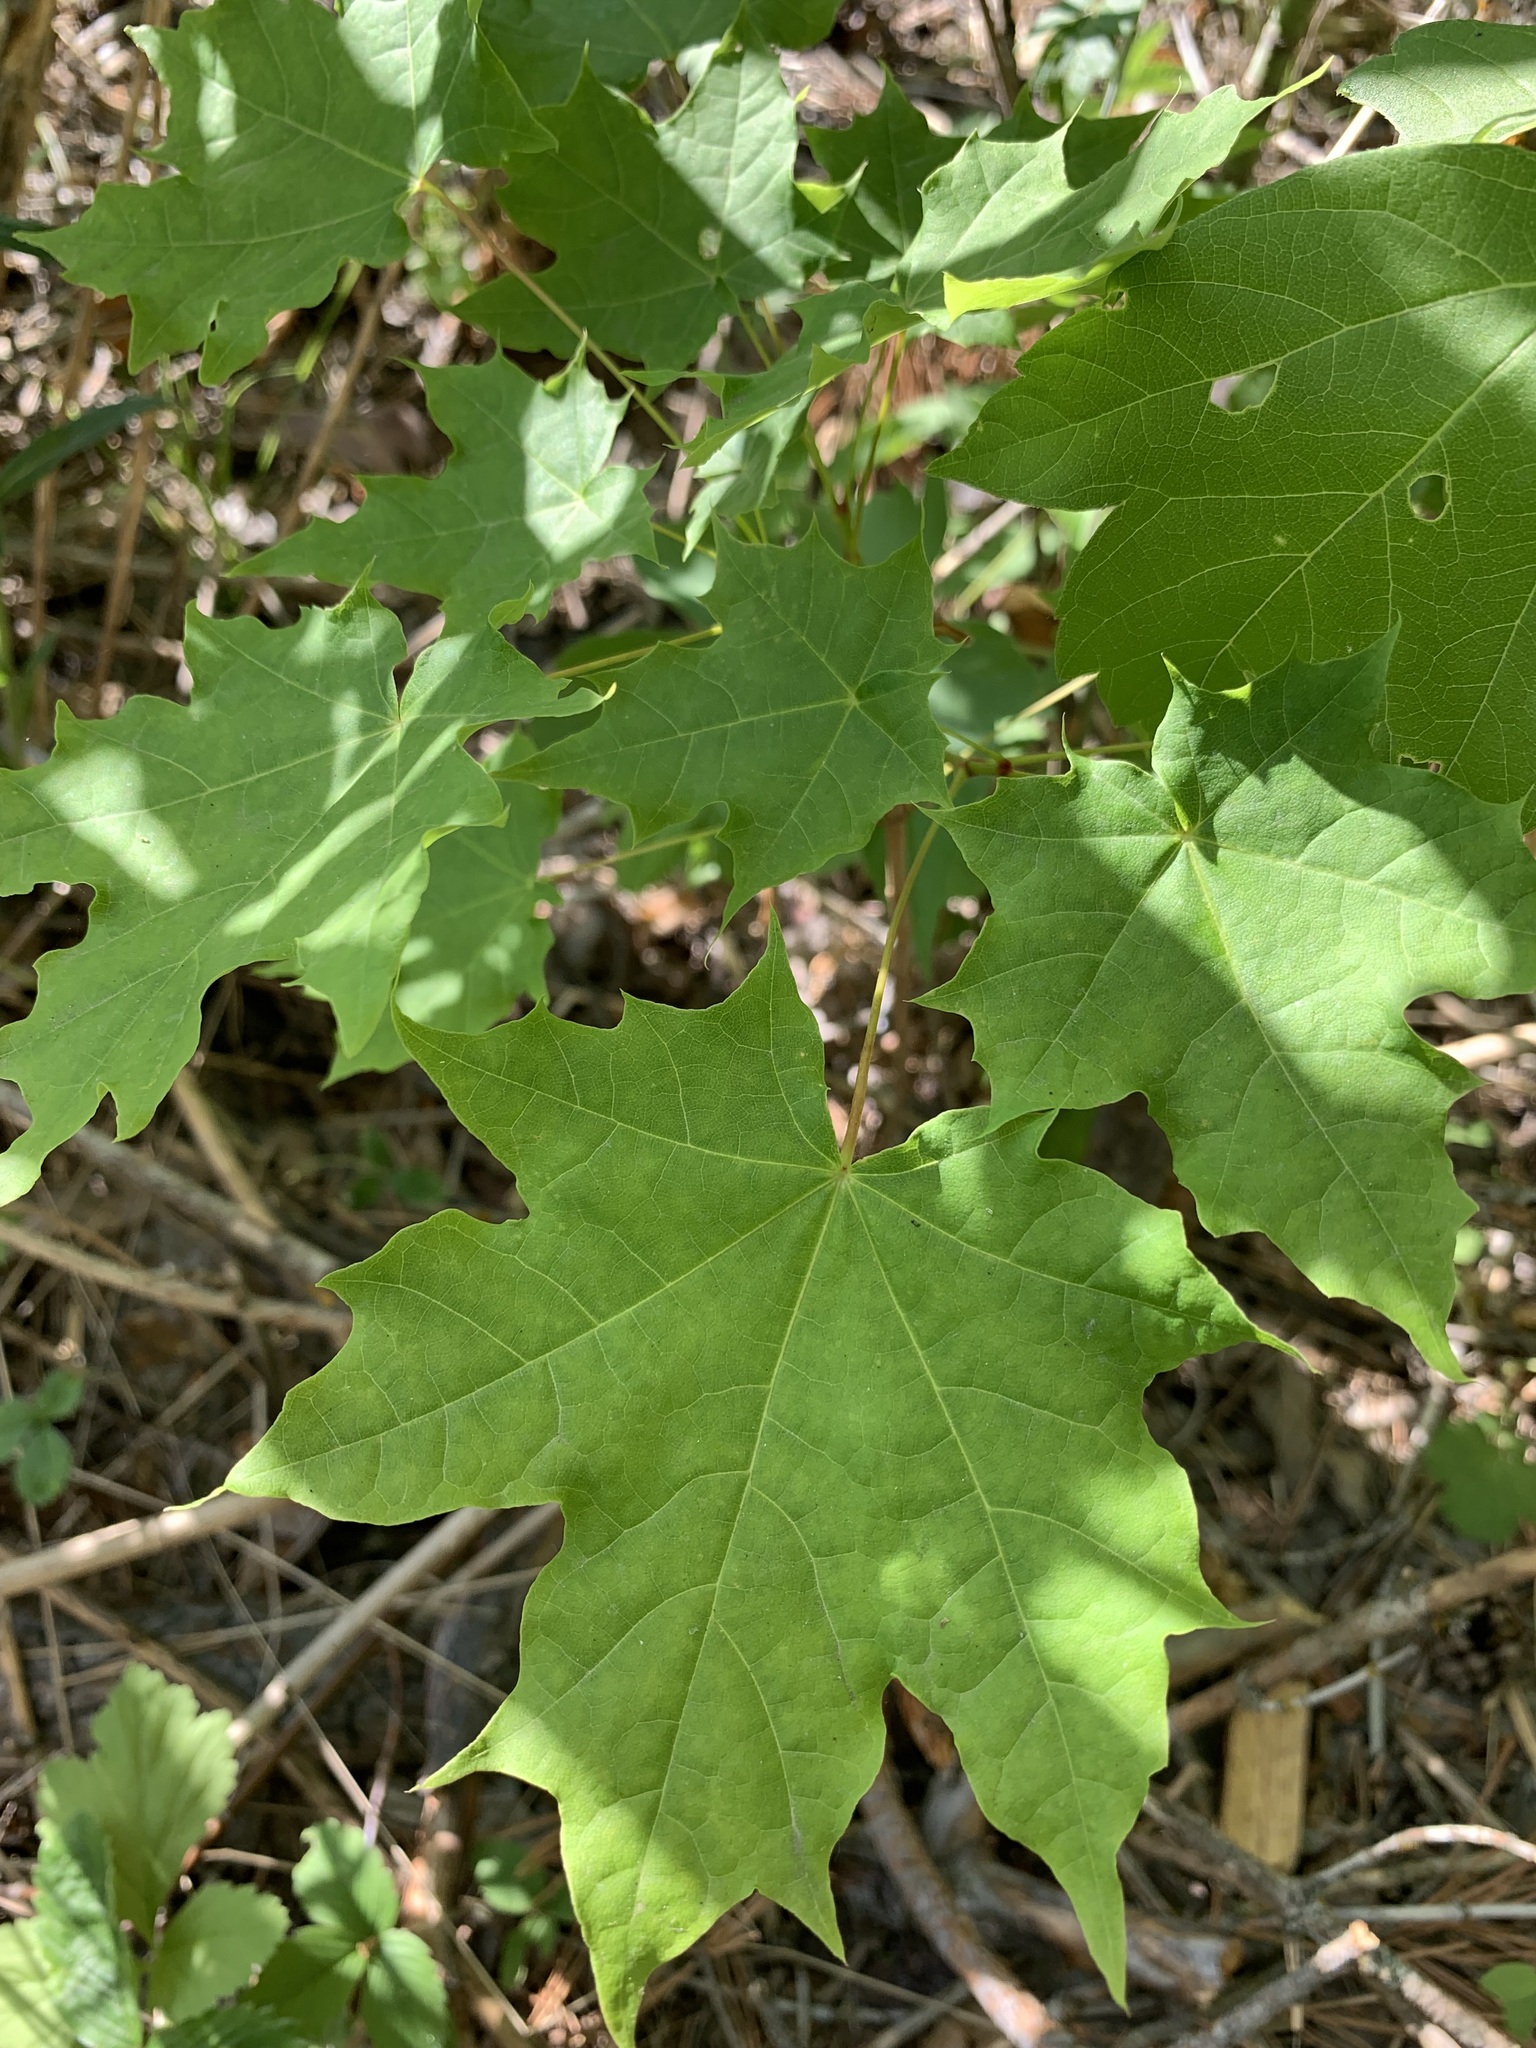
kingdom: Plantae
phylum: Tracheophyta
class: Magnoliopsida
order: Sapindales
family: Sapindaceae
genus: Acer
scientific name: Acer platanoides
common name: Norway maple
